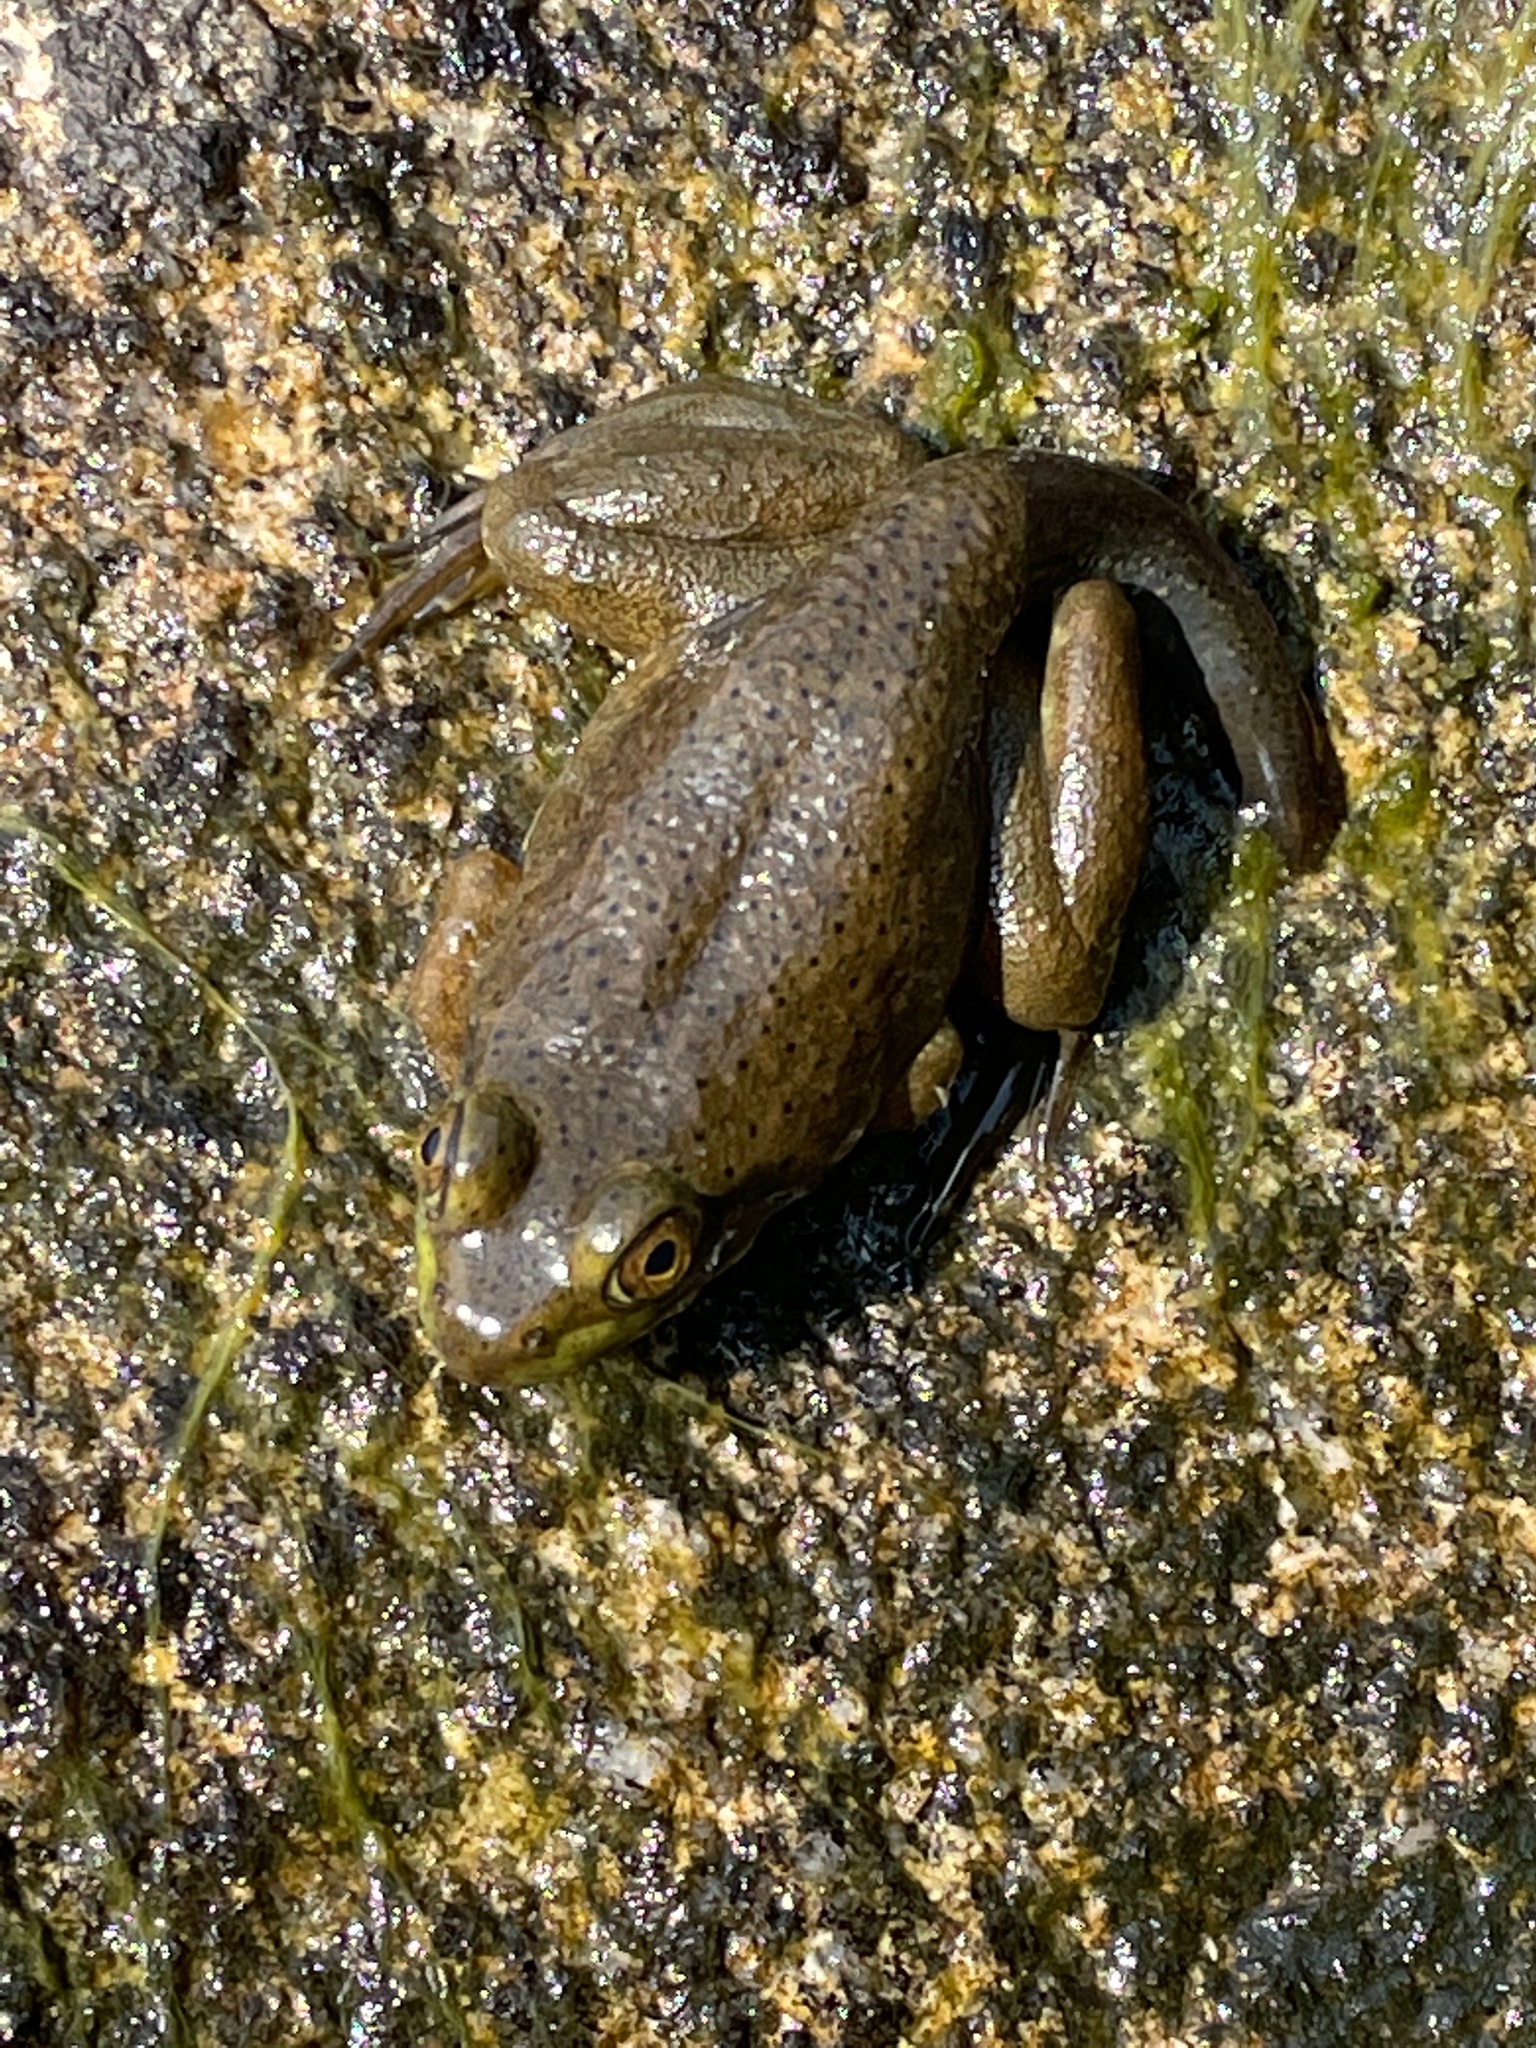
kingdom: Animalia
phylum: Chordata
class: Amphibia
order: Anura
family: Ranidae
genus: Lithobates
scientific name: Lithobates catesbeianus
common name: American bullfrog
